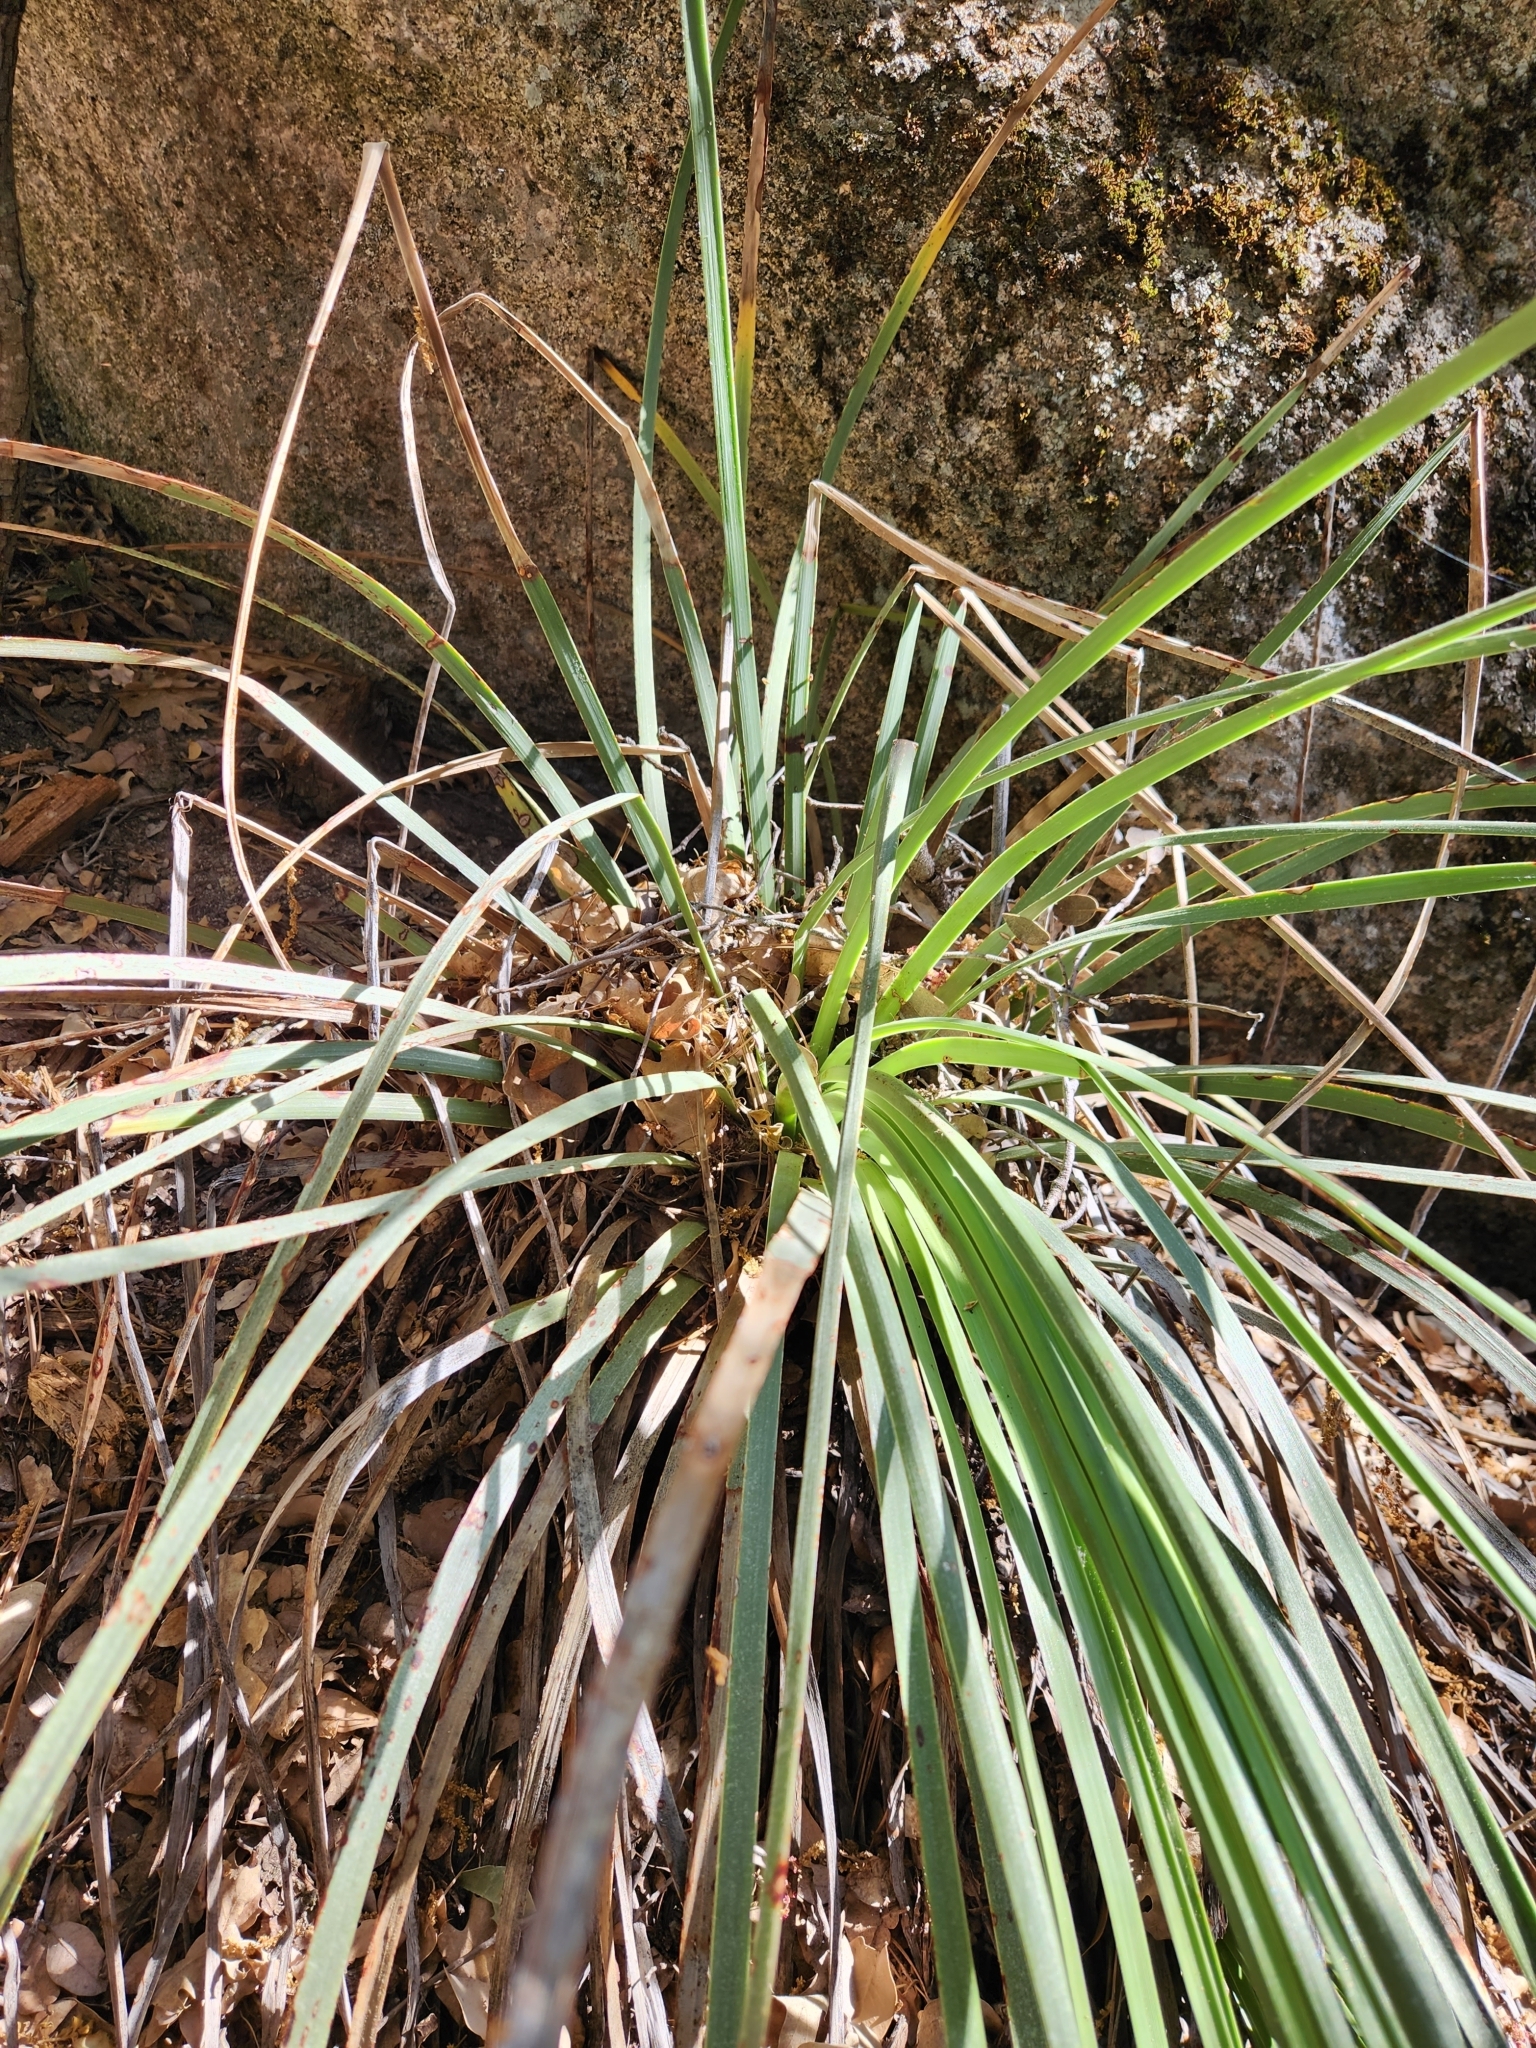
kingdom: Plantae
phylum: Tracheophyta
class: Liliopsida
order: Asparagales
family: Asparagaceae
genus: Hesperoyucca
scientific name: Hesperoyucca whipplei
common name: Our lord's-candle
